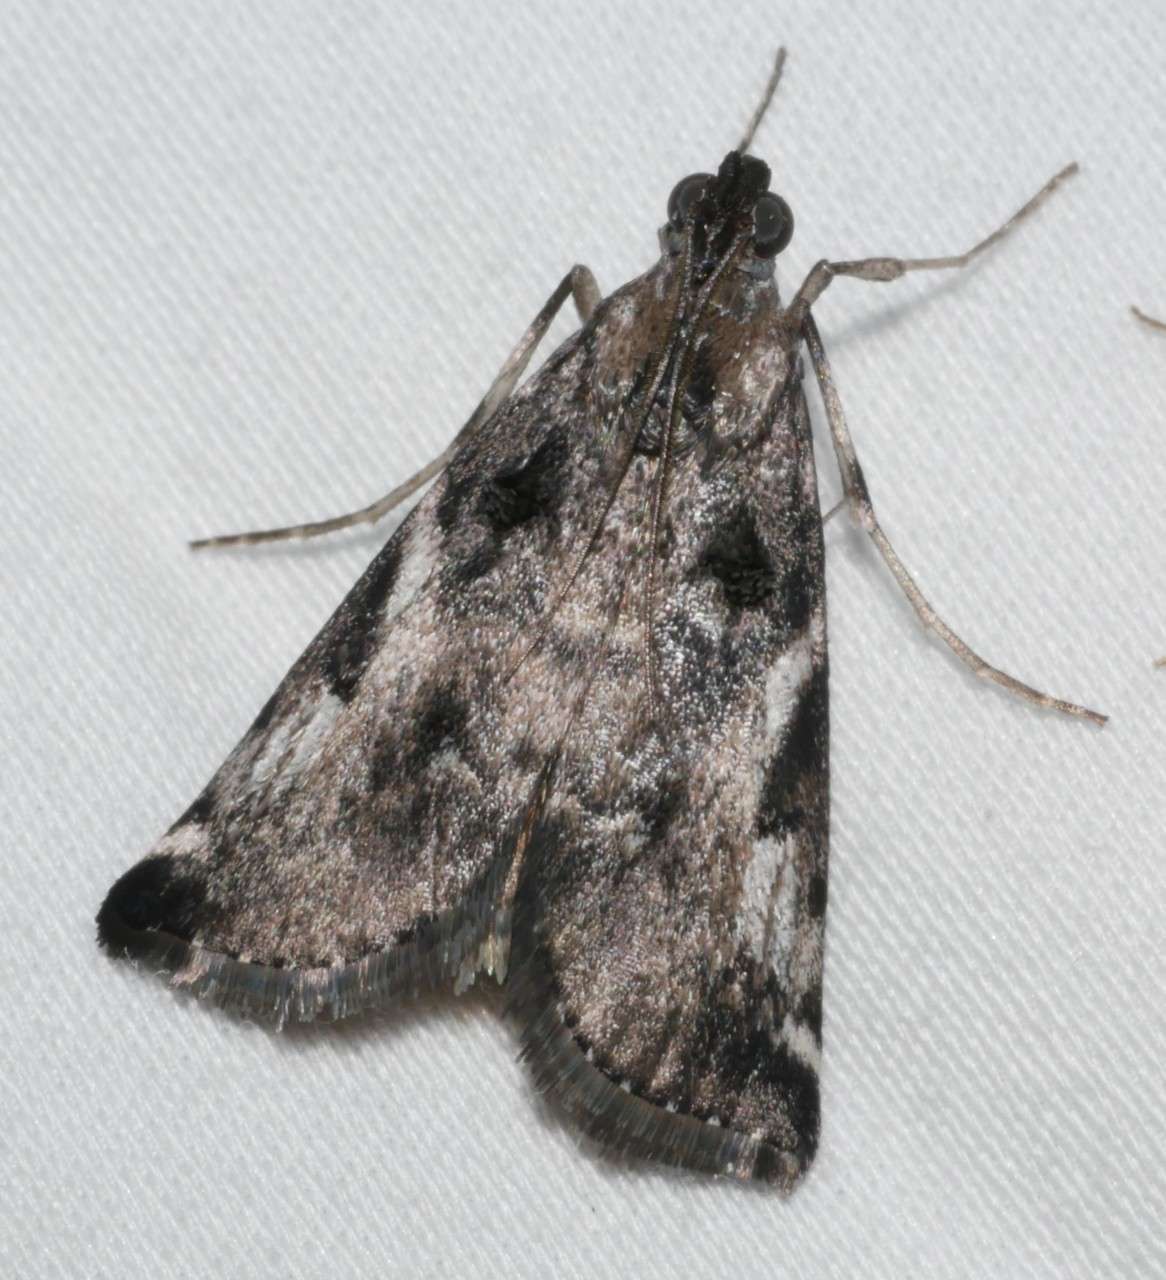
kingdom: Animalia
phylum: Arthropoda
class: Insecta
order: Lepidoptera
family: Pyralidae
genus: Astrapometis
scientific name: Astrapometis saburalis
